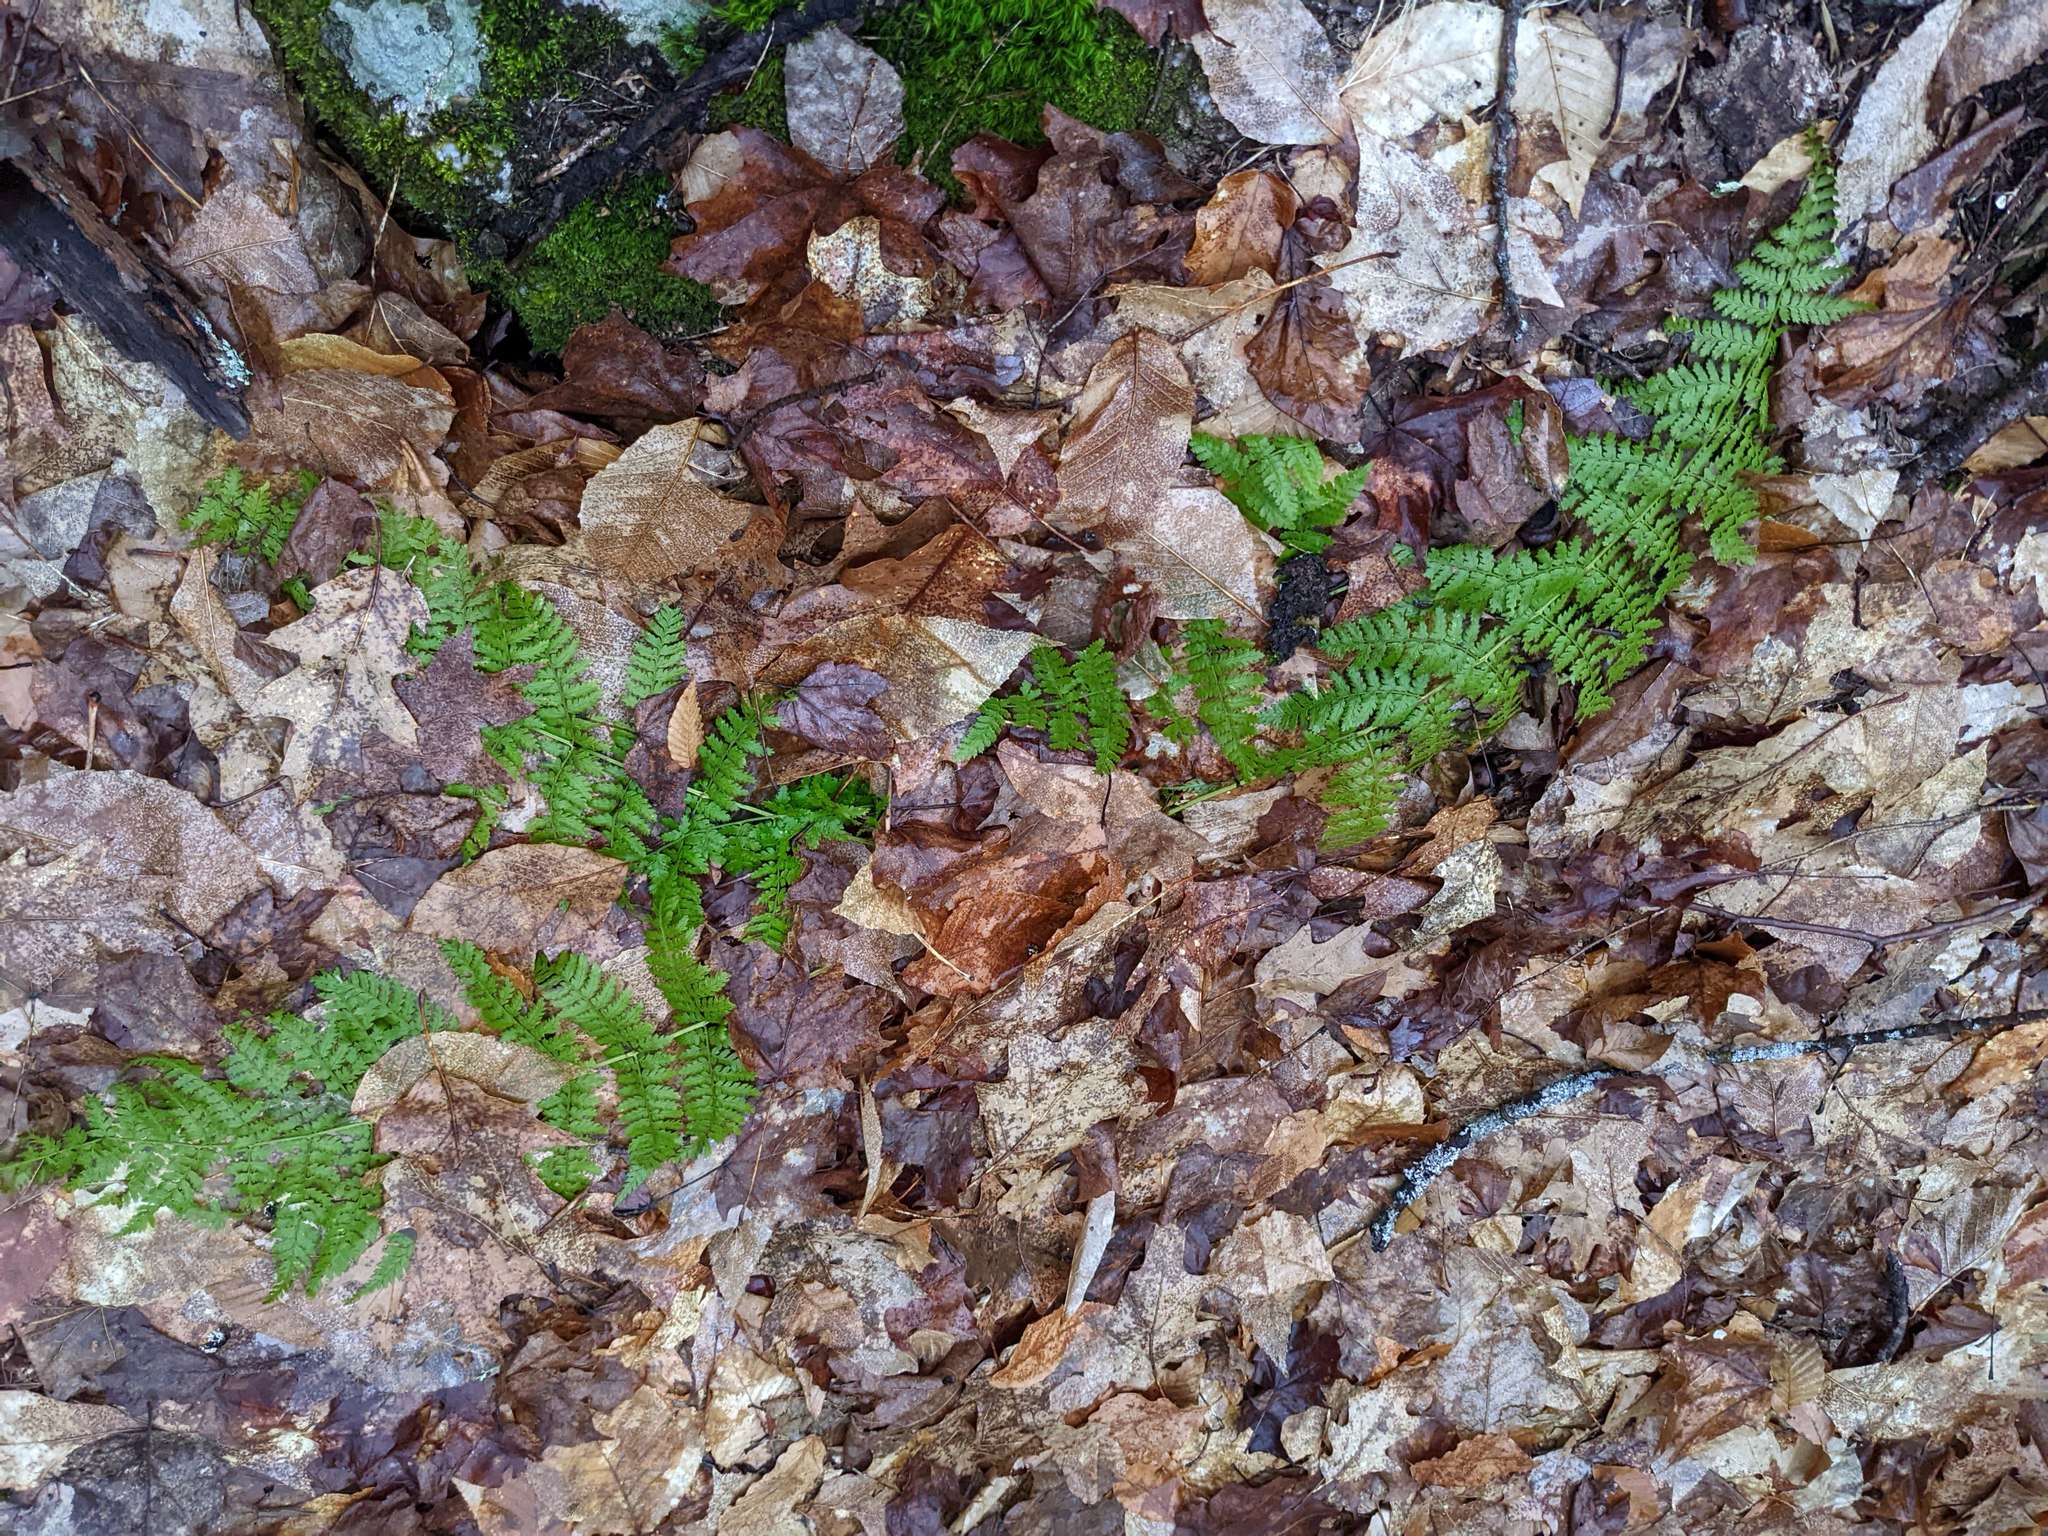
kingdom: Plantae
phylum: Tracheophyta
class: Polypodiopsida
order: Polypodiales
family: Dryopteridaceae
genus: Dryopteris
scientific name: Dryopteris intermedia
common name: Evergreen wood fern
